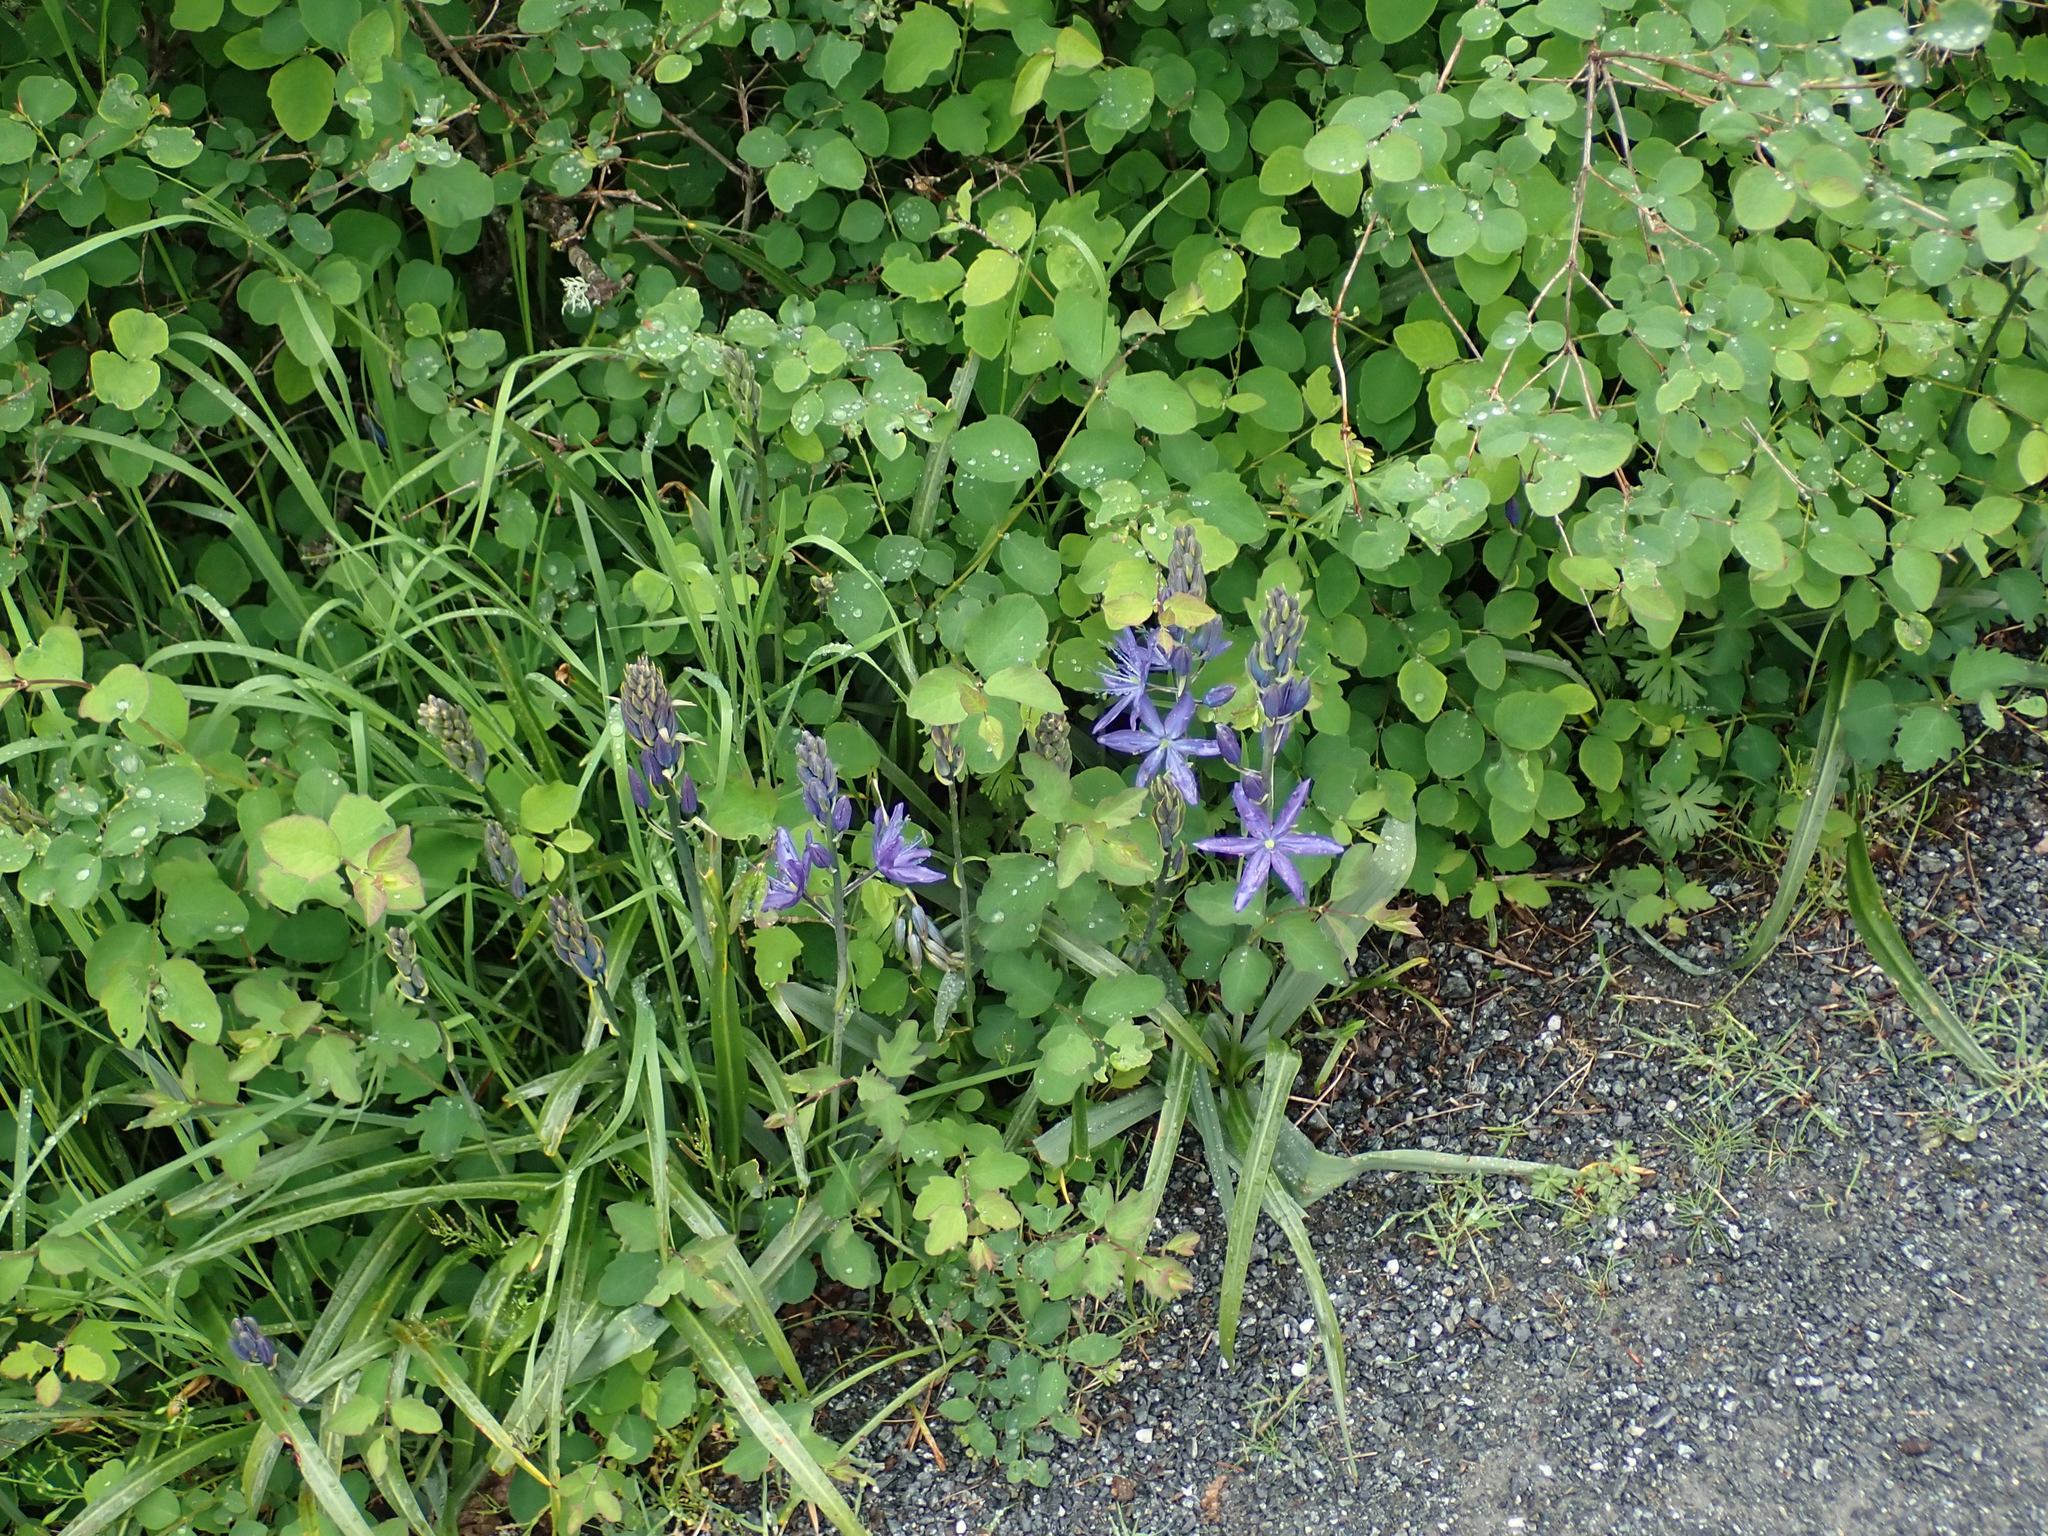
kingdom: Plantae
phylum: Tracheophyta
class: Liliopsida
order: Asparagales
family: Asparagaceae
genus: Camassia
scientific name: Camassia leichtlinii
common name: Leichtlin's camas
